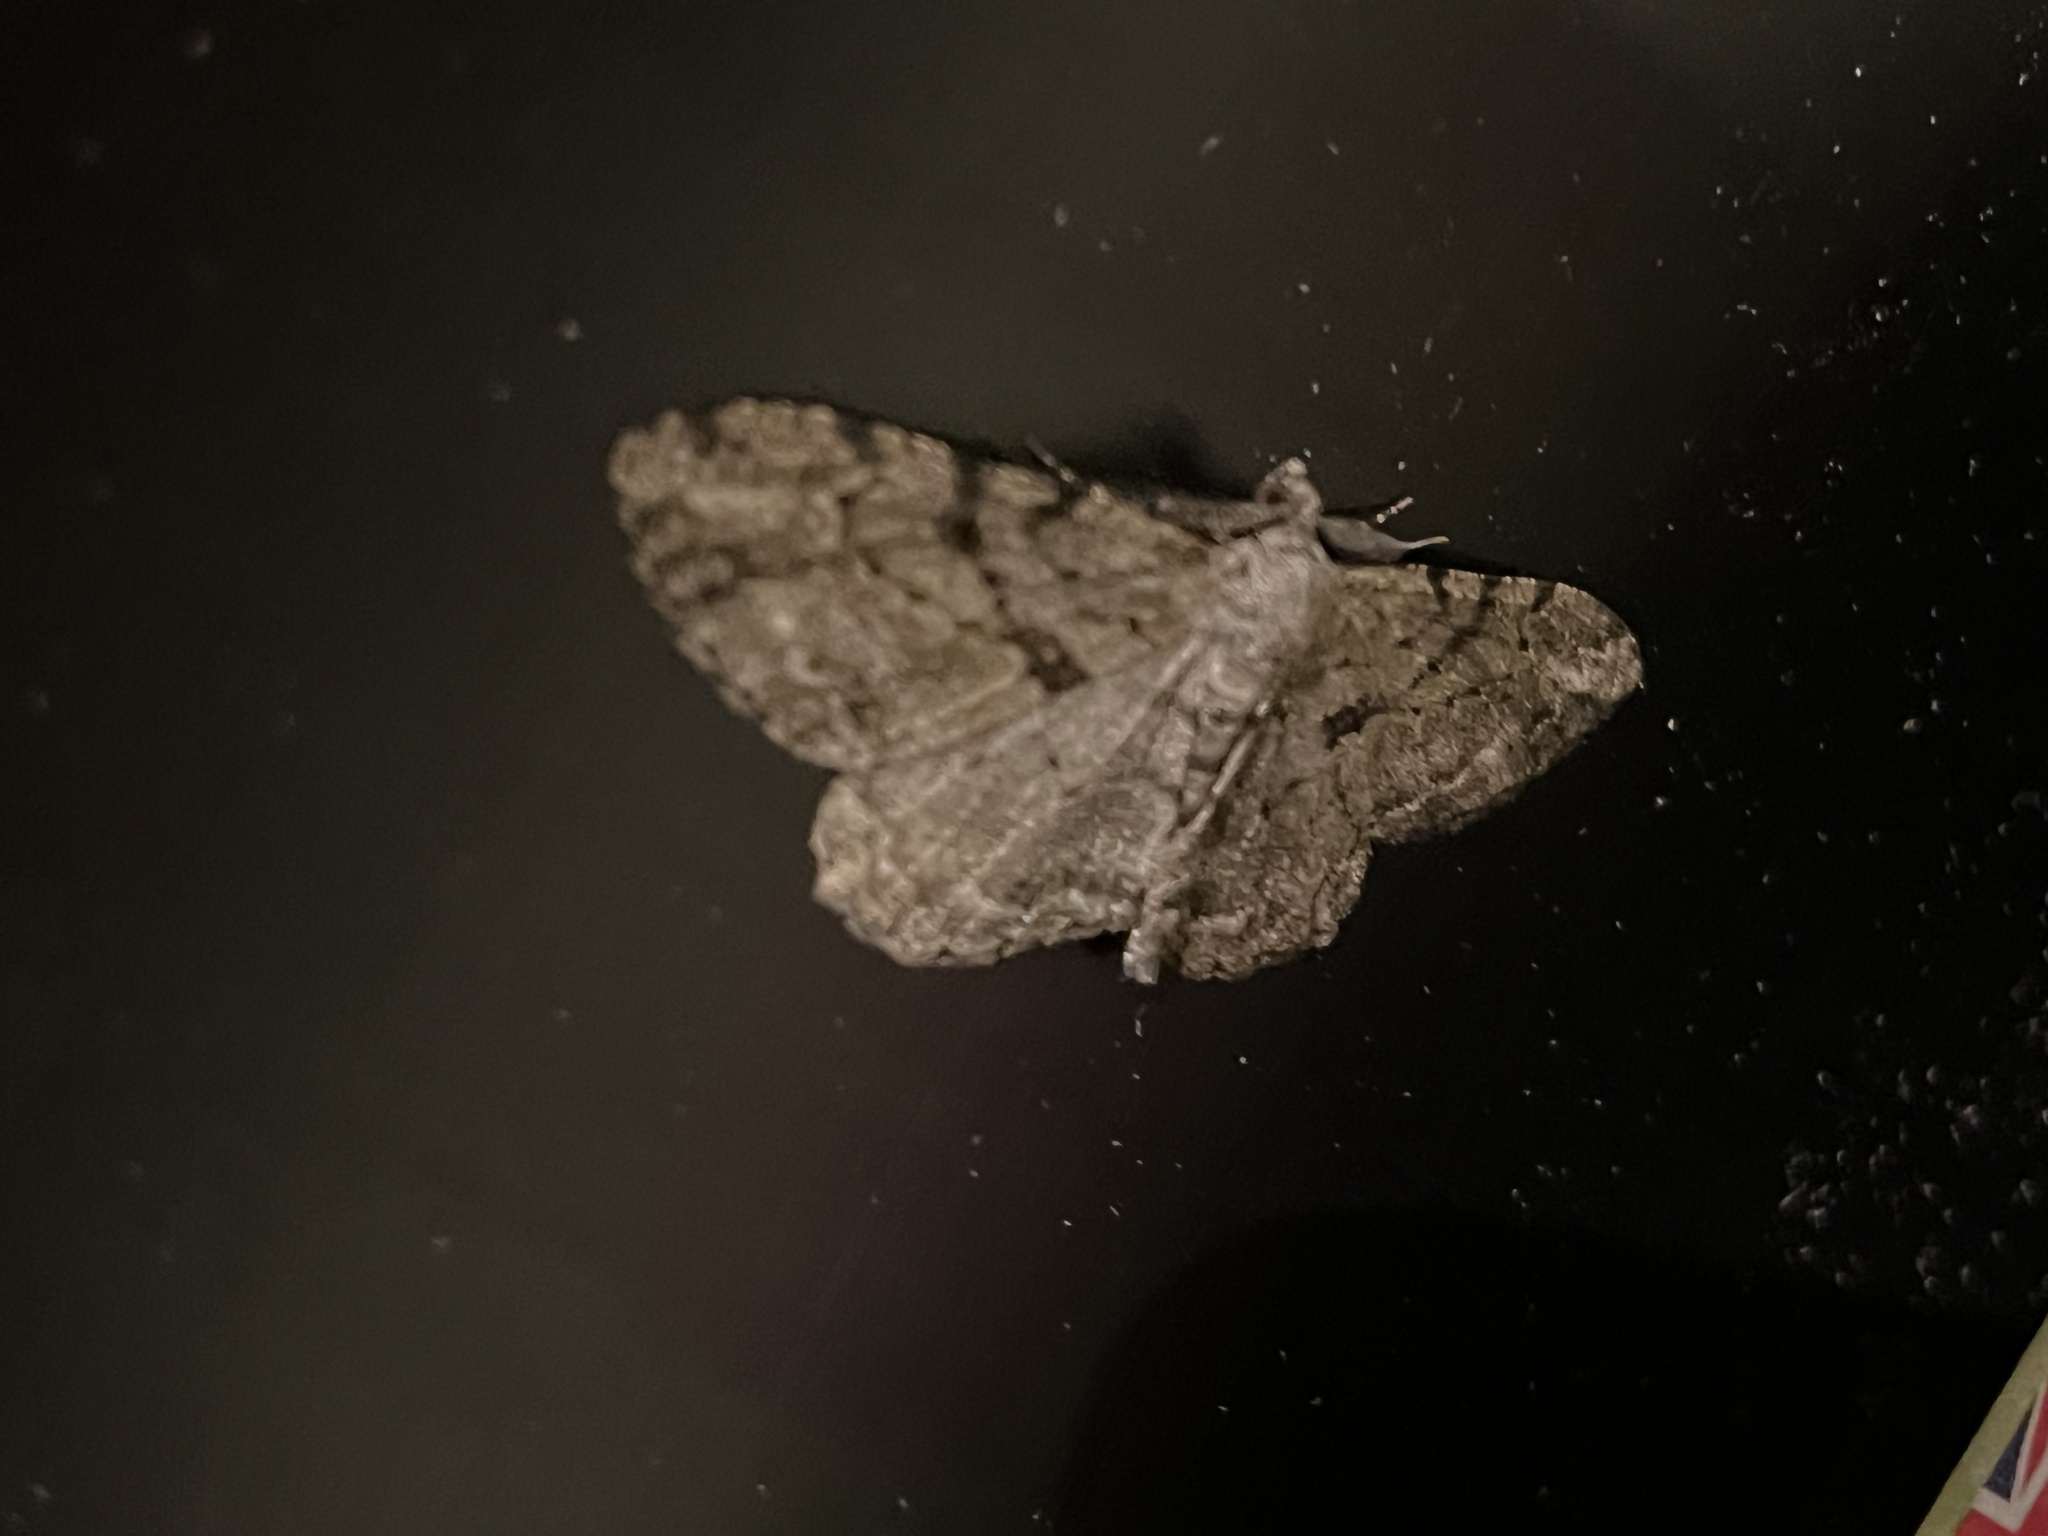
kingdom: Animalia
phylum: Arthropoda
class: Insecta
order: Lepidoptera
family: Geometridae
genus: Peribatodes
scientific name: Peribatodes rhomboidaria
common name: Willow beauty
